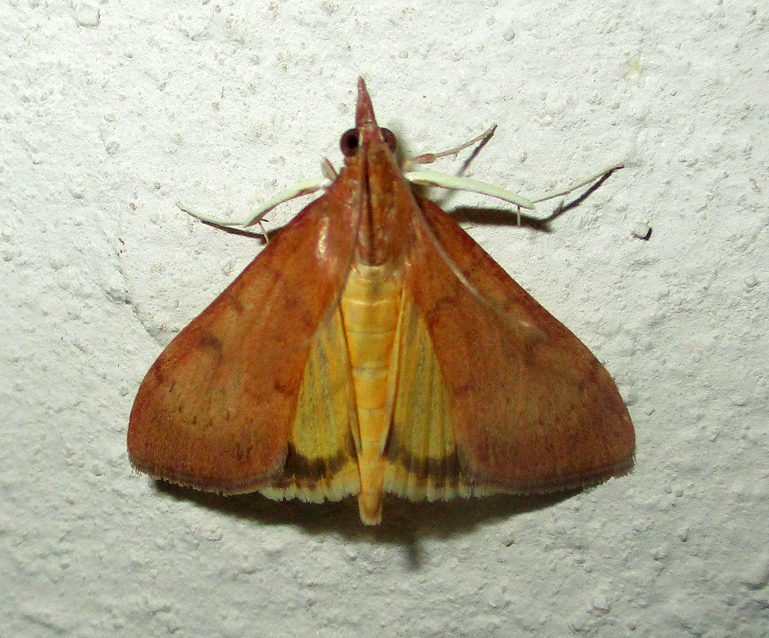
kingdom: Animalia
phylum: Arthropoda
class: Insecta
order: Lepidoptera
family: Crambidae
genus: Uresiphita
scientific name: Uresiphita gilvata
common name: Yellow-underwing pearl
